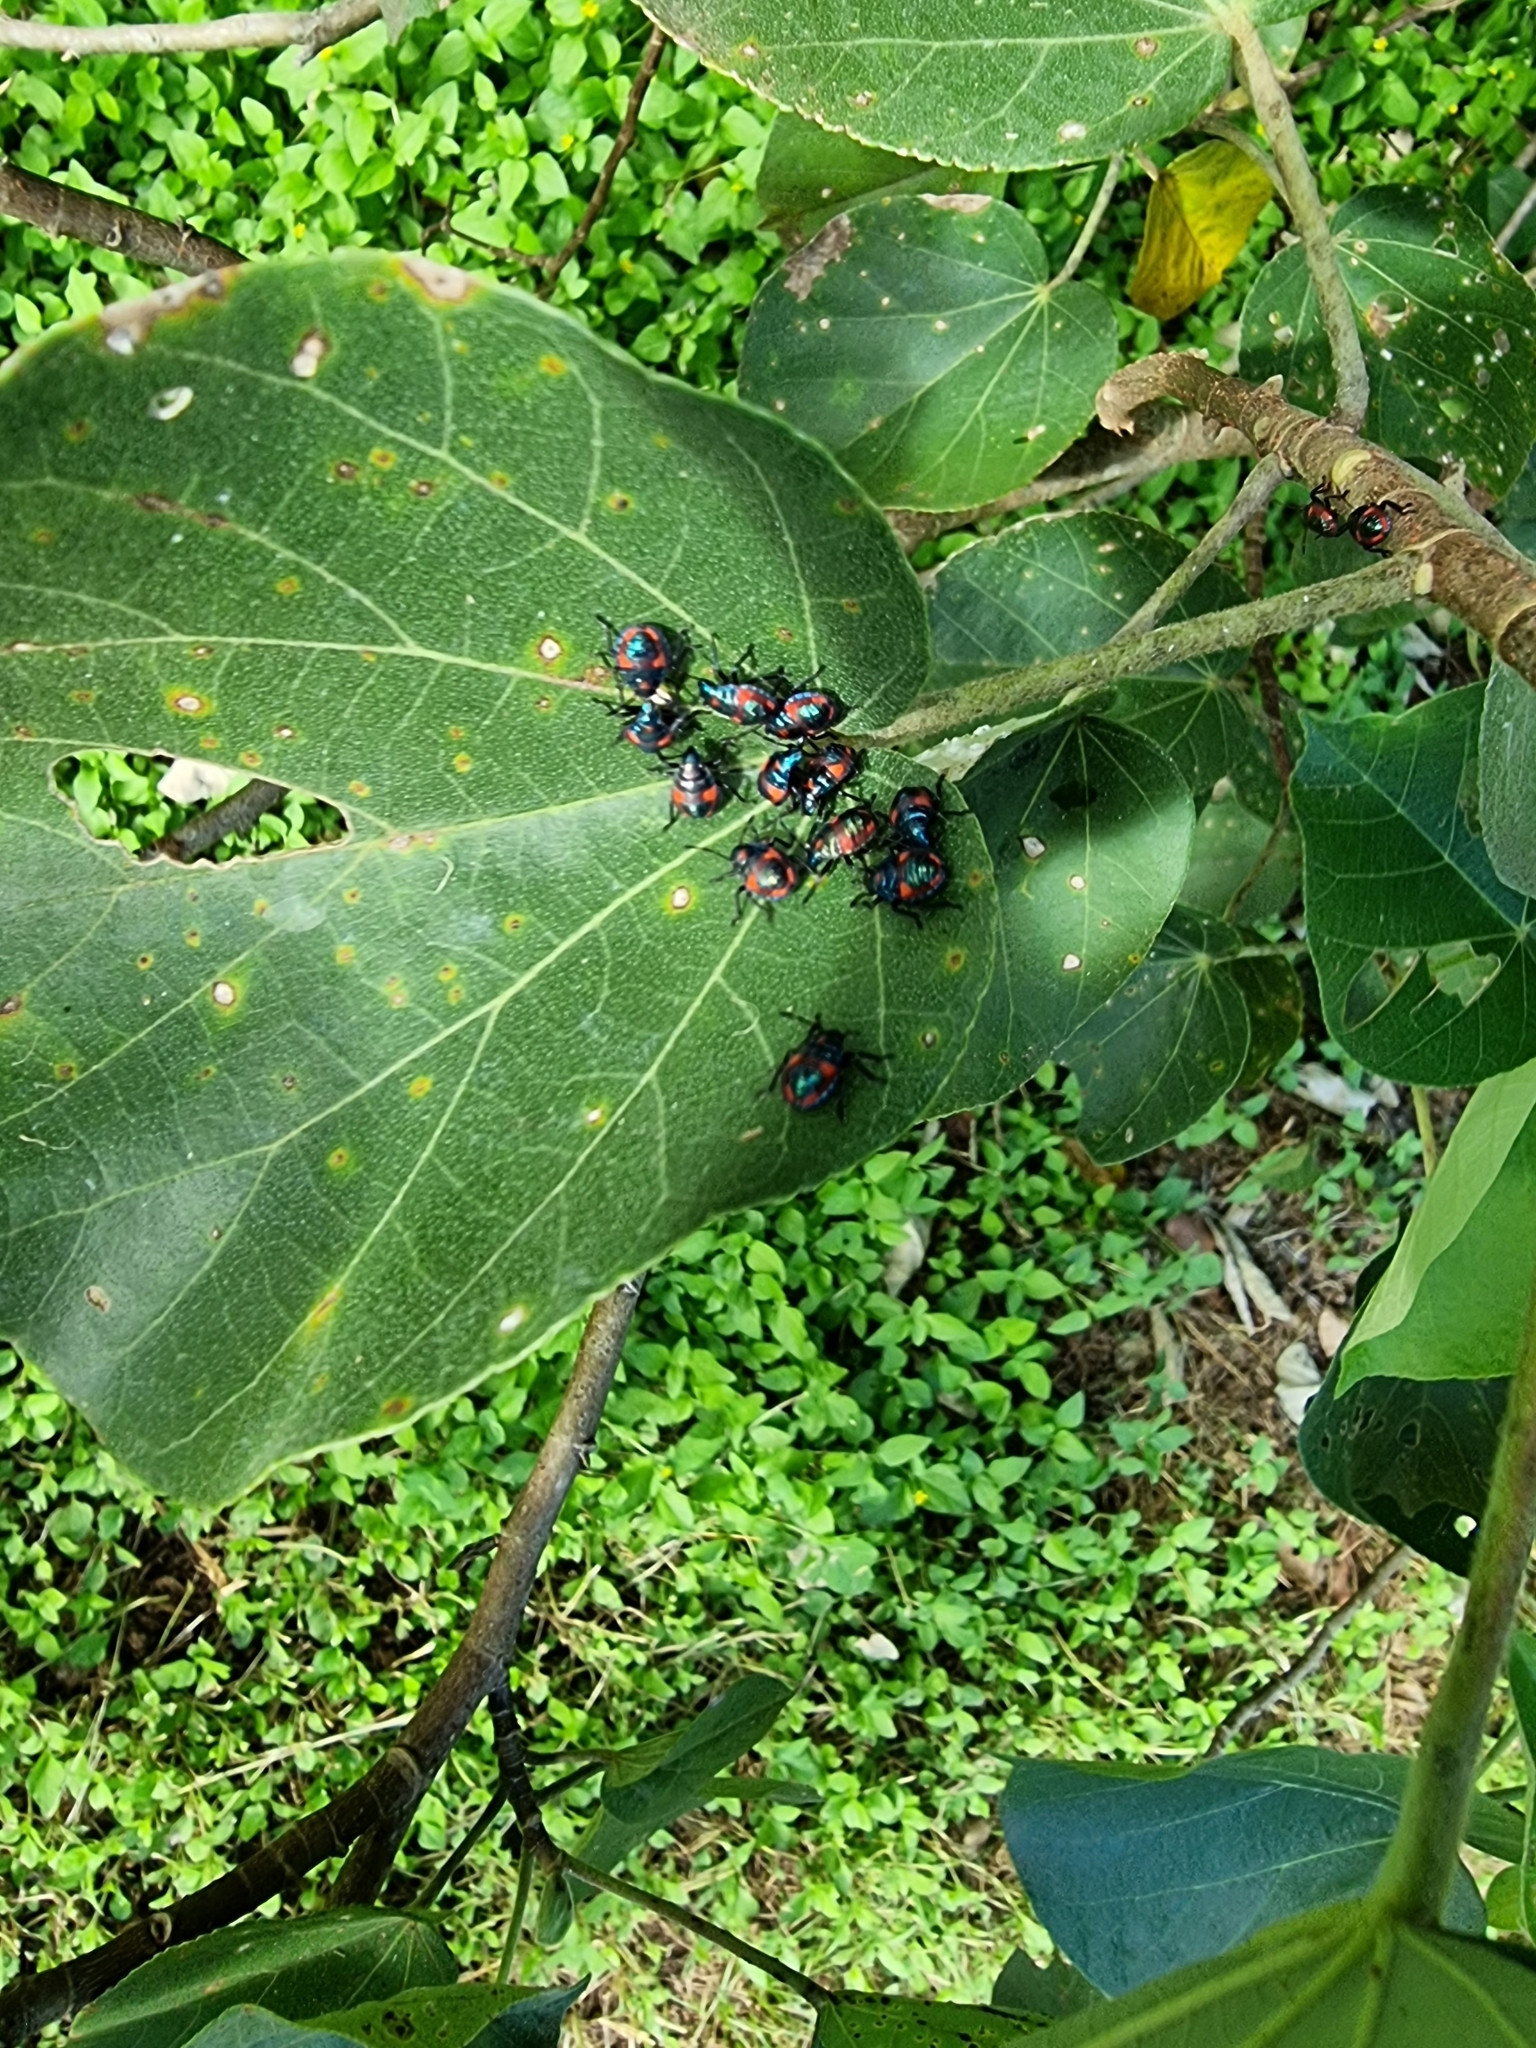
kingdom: Animalia
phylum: Arthropoda
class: Insecta
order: Hemiptera
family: Scutelleridae
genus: Tectocoris
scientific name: Tectocoris diophthalmus
